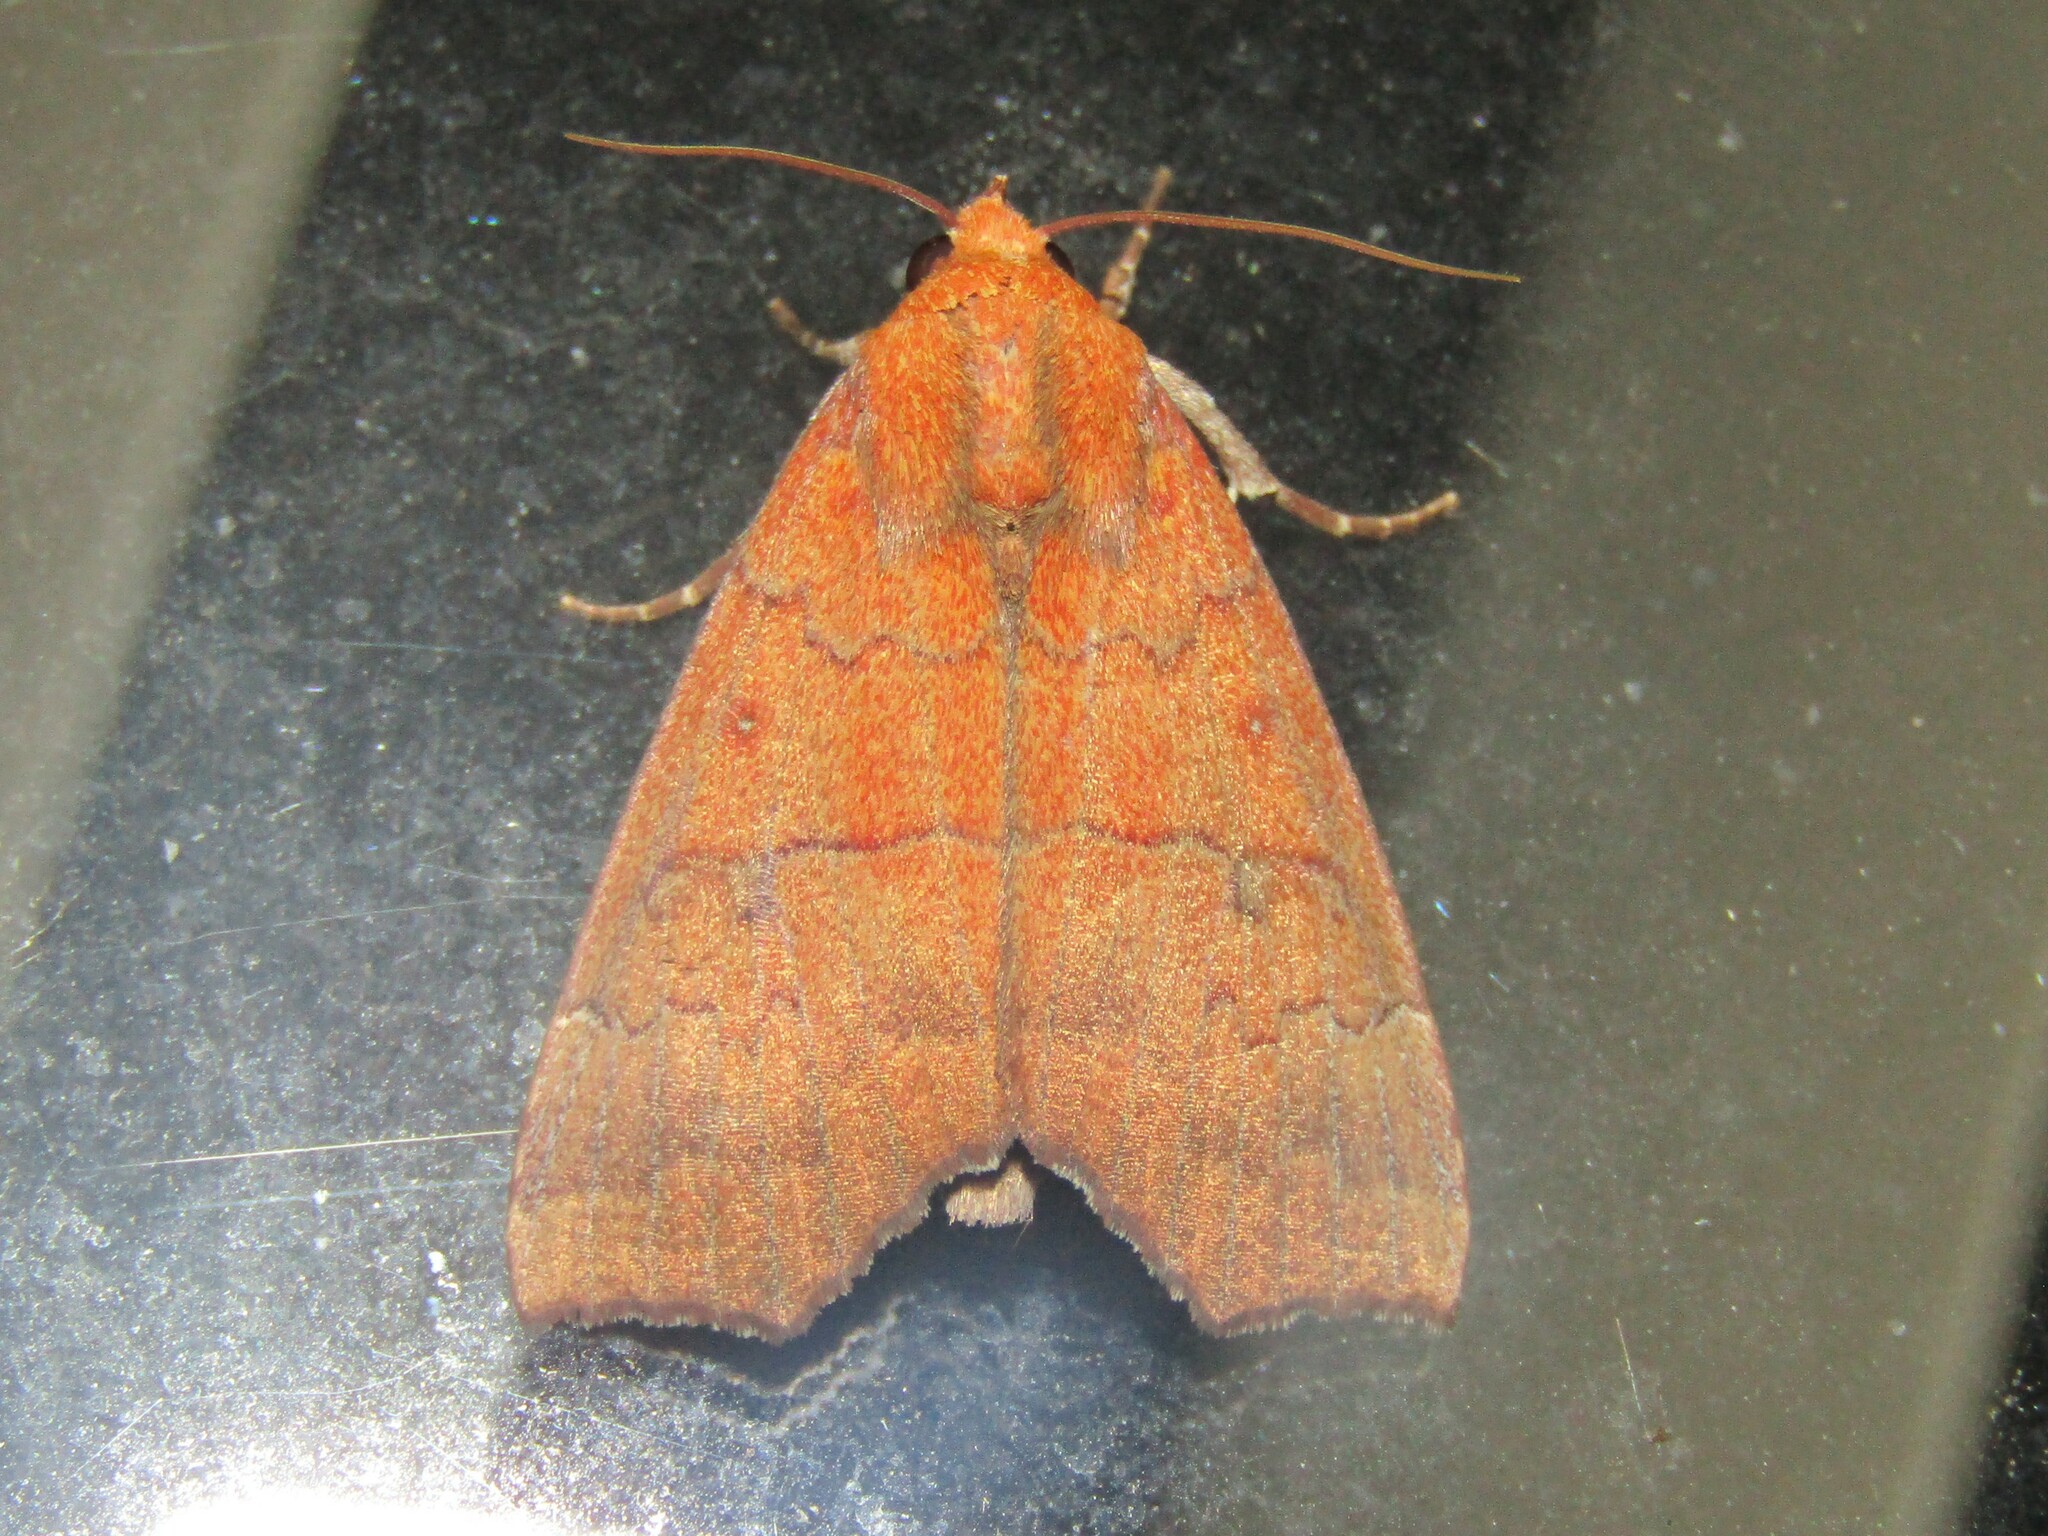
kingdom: Animalia
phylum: Arthropoda
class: Insecta
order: Lepidoptera
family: Erebidae
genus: Rusicada
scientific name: Rusicada privata
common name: Hibiscus leaf caterpillar moth
